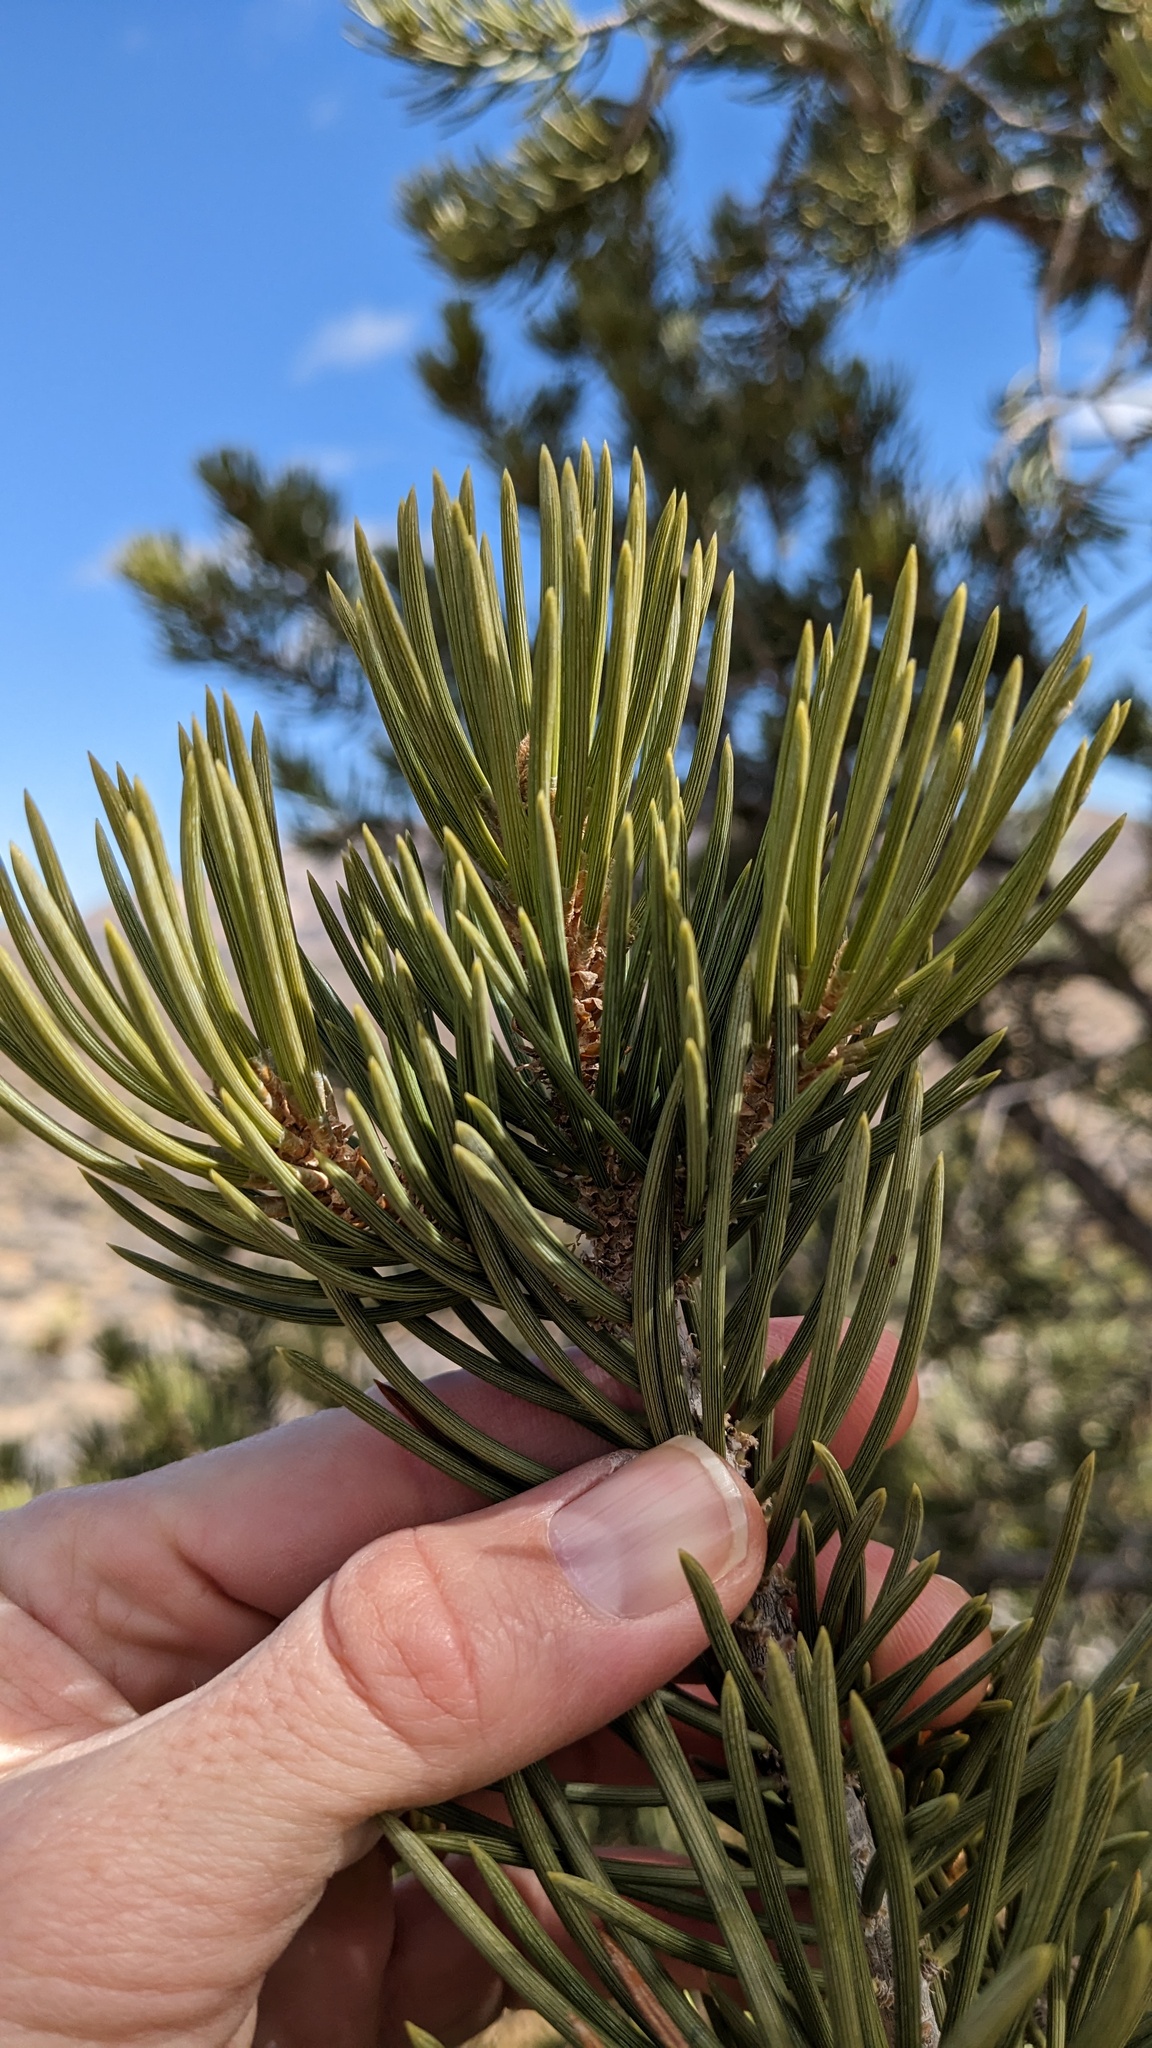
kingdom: Plantae
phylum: Tracheophyta
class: Pinopsida
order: Pinales
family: Pinaceae
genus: Pinus
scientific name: Pinus monophylla
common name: One-leaved nut pine
